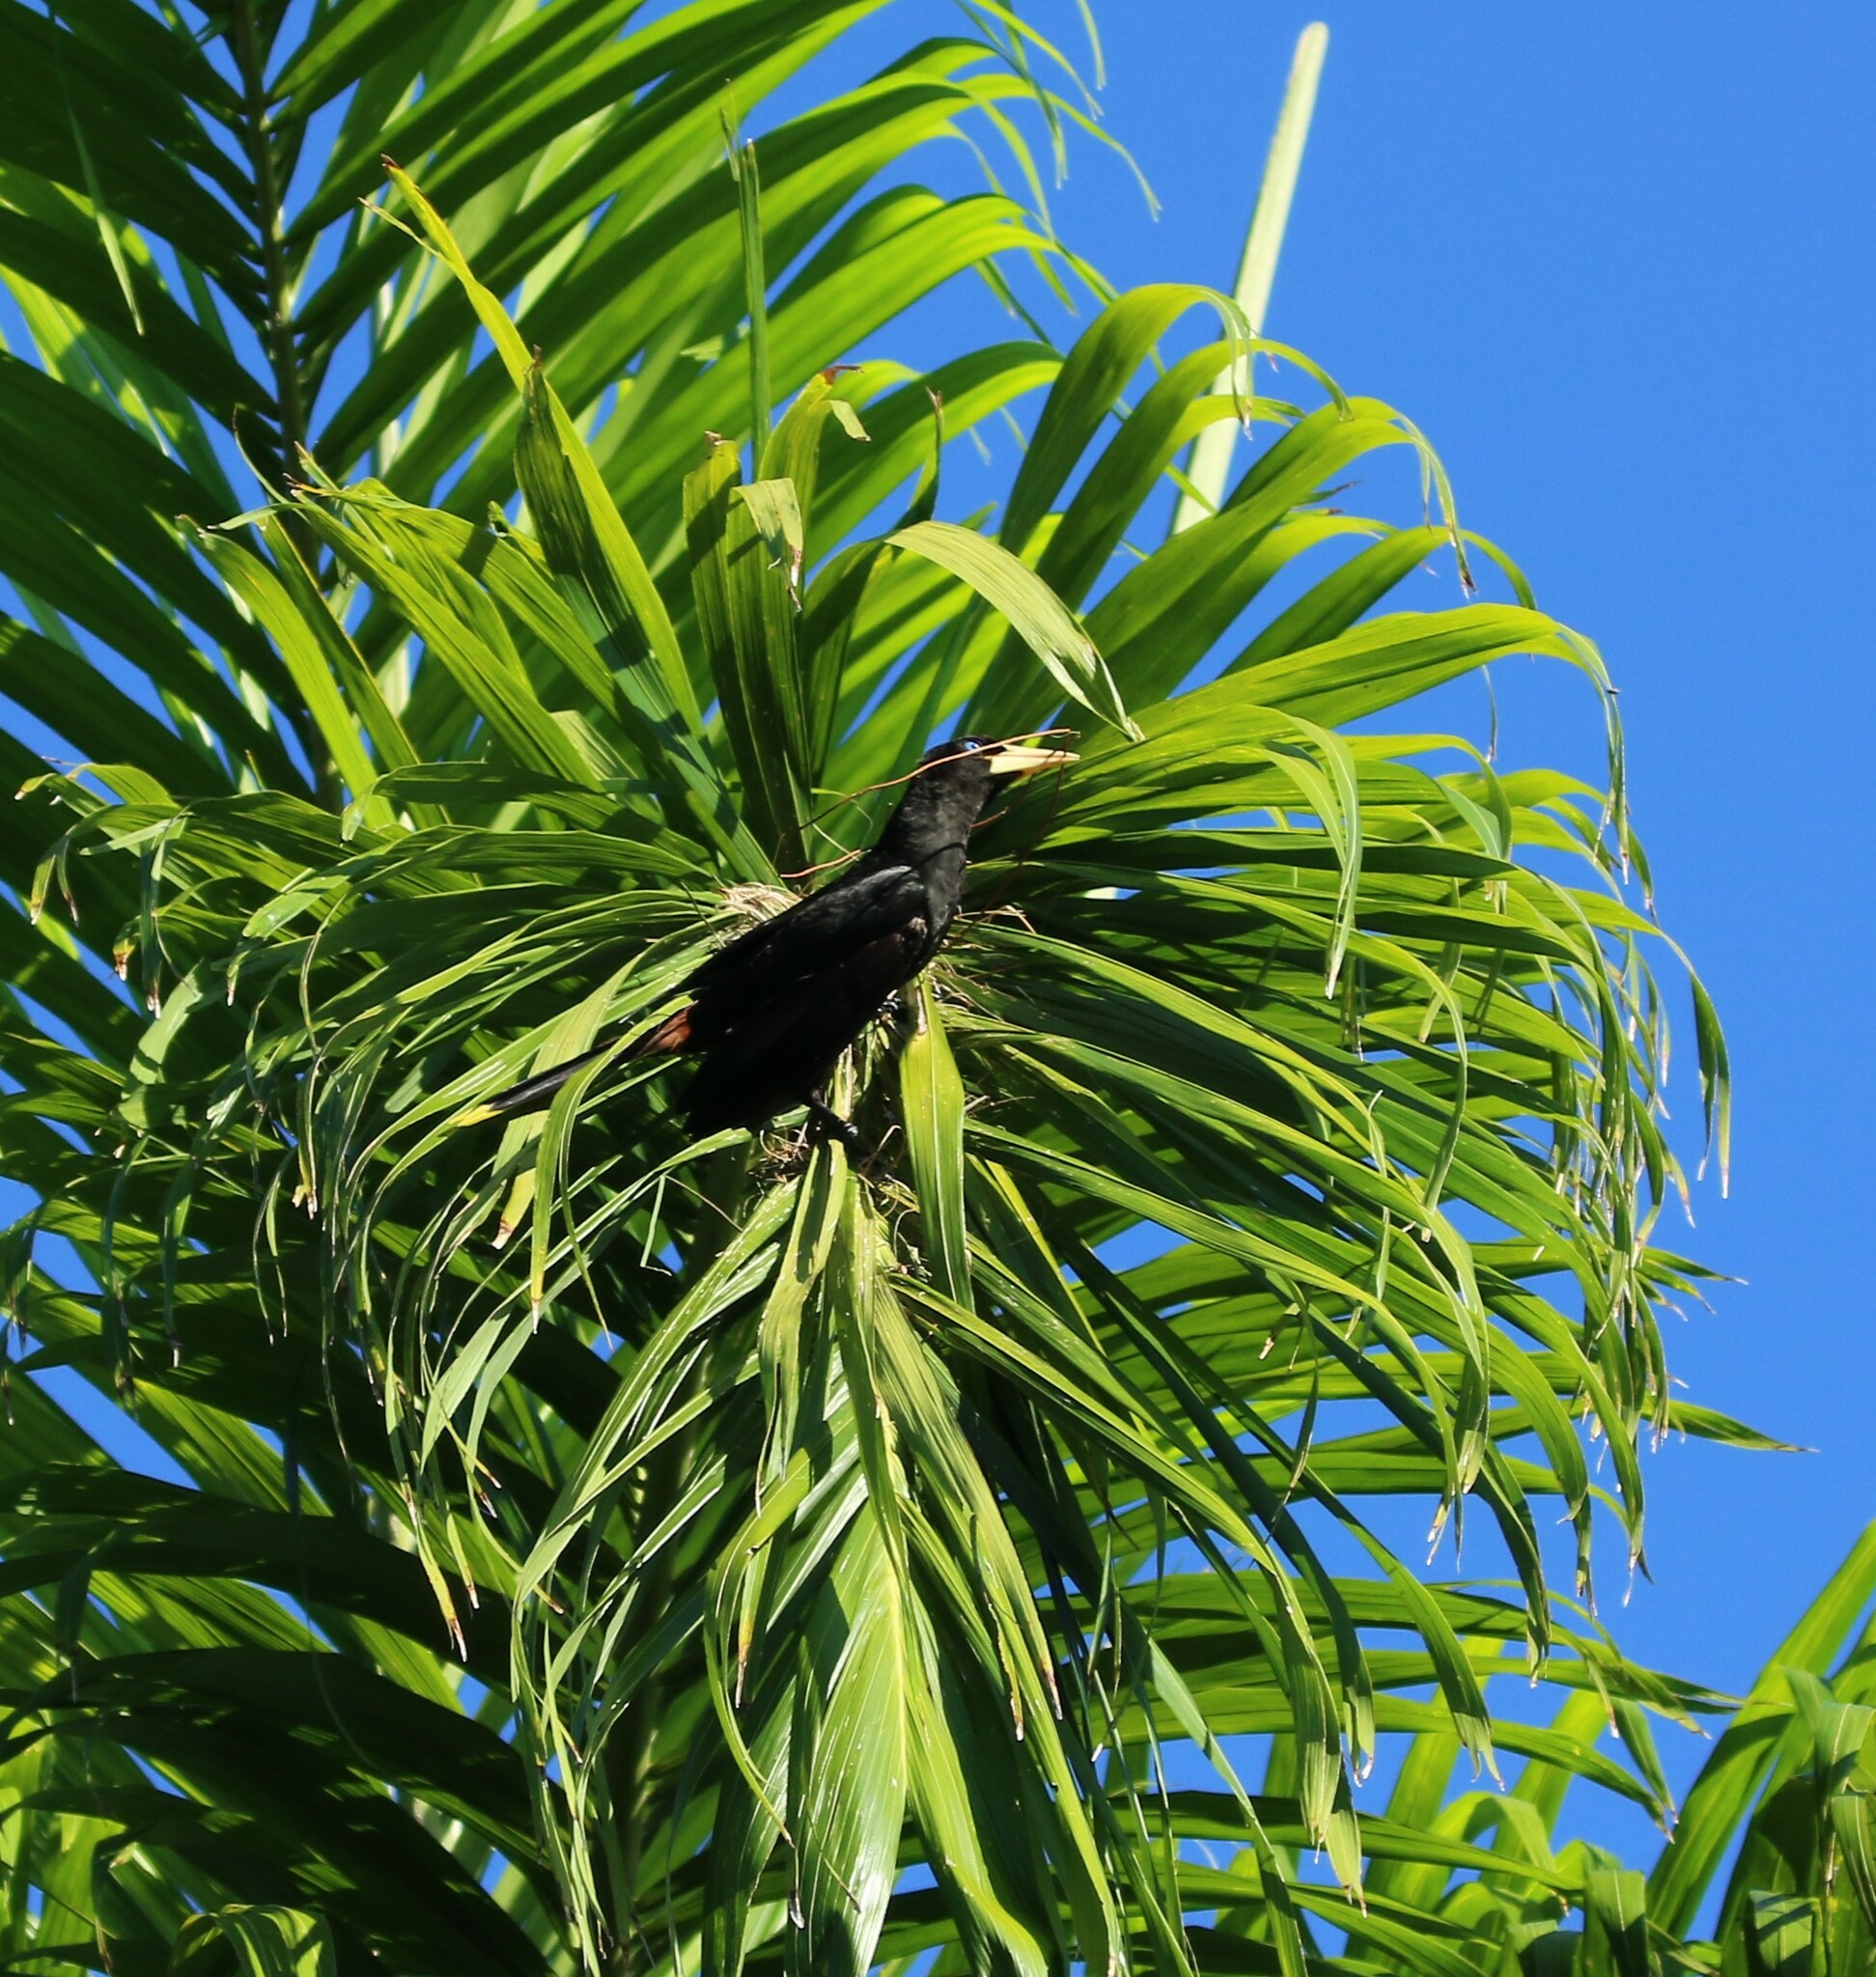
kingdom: Animalia
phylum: Chordata
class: Aves
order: Passeriformes
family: Icteridae
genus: Psarocolius
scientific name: Psarocolius wagleri
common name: Chestnut-headed oropendola
